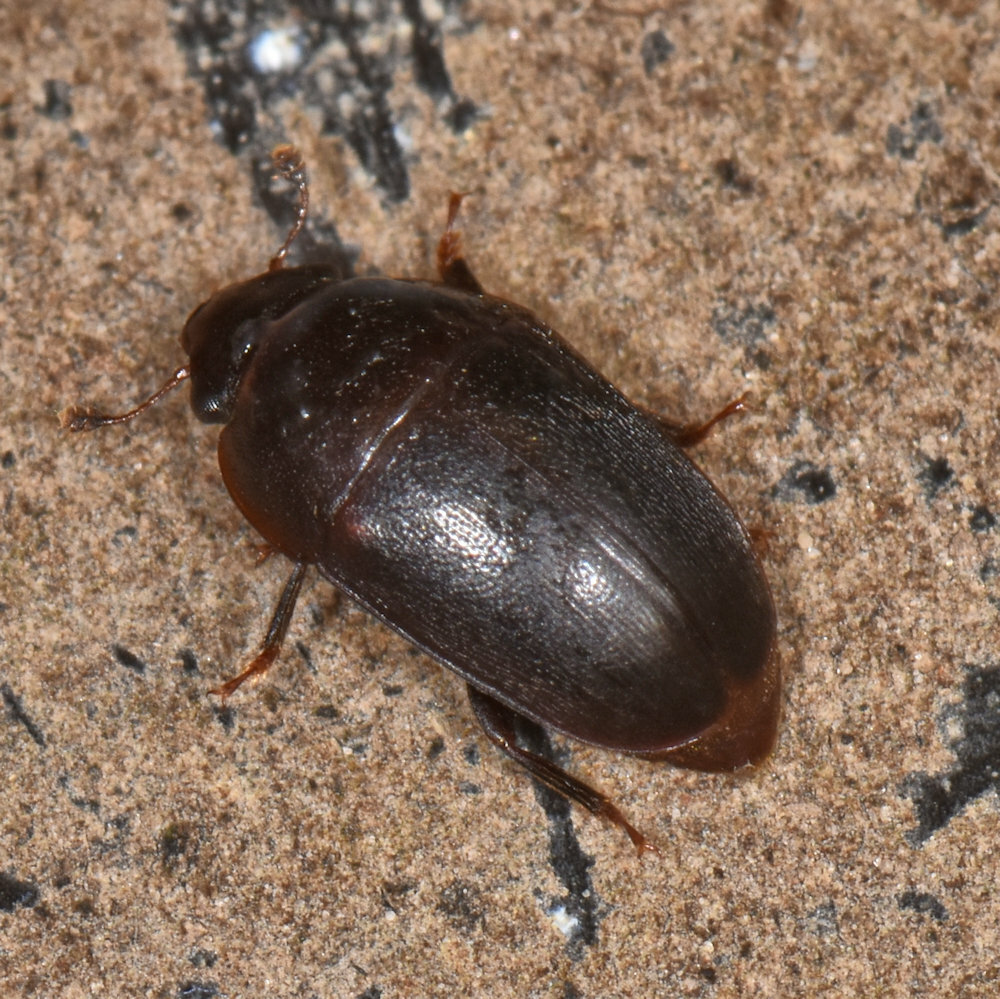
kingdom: Animalia
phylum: Arthropoda
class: Insecta
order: Coleoptera
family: Nitidulidae
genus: Cryptarcha
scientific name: Cryptarcha ampla
